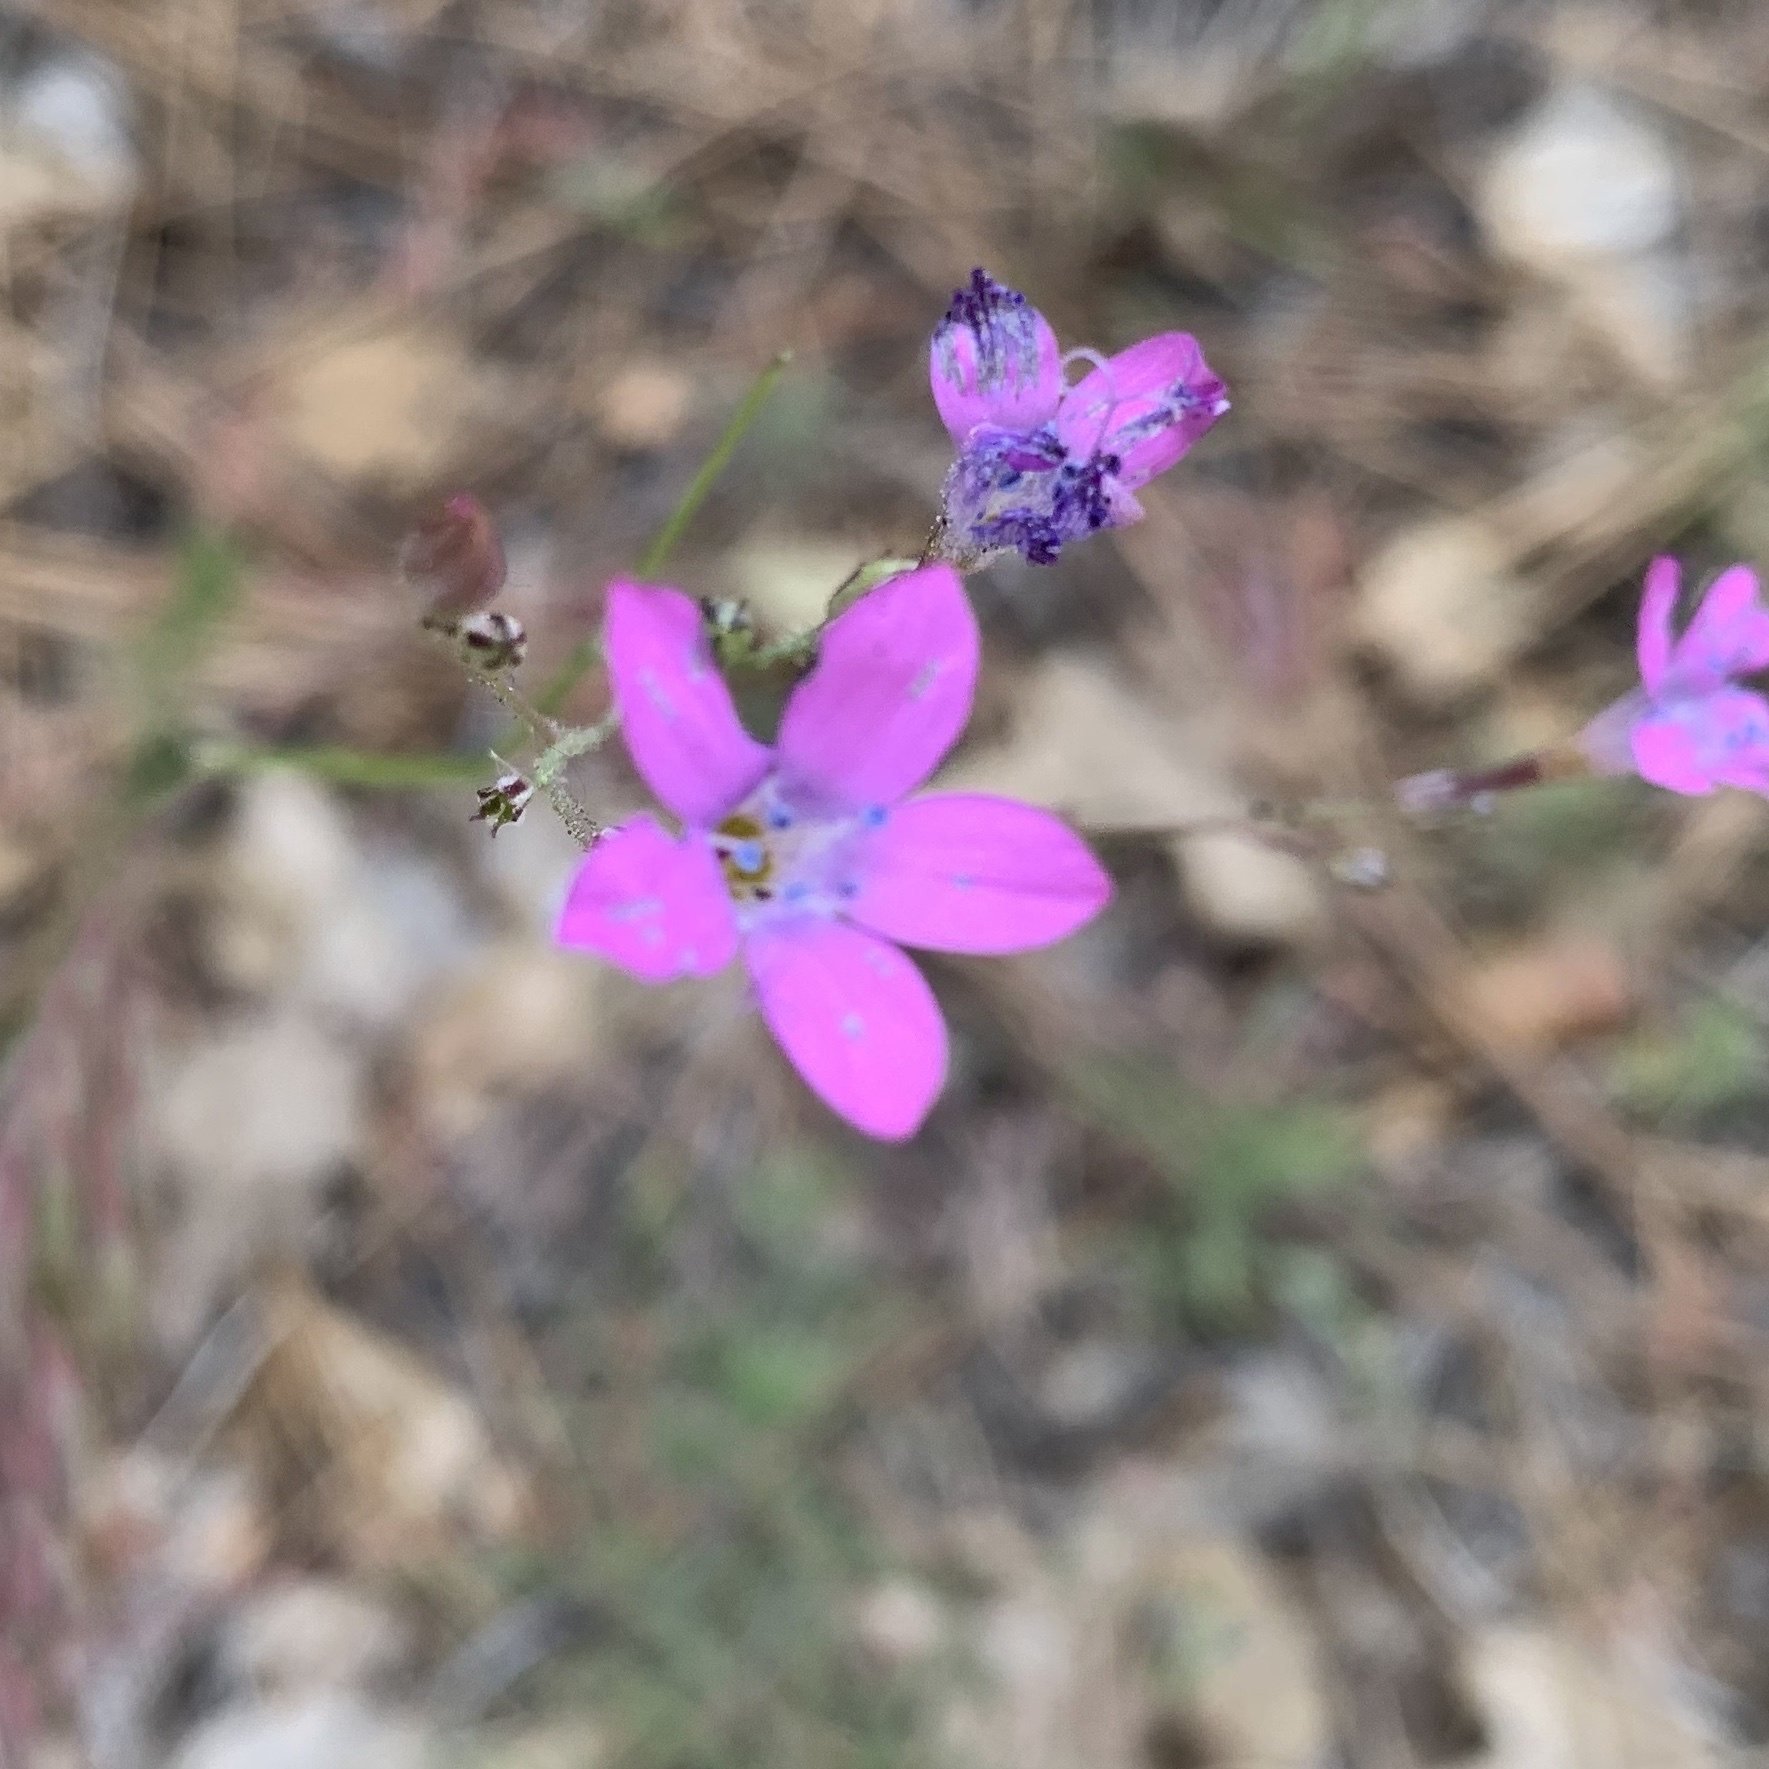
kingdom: Plantae
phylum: Tracheophyta
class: Magnoliopsida
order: Ericales
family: Polemoniaceae
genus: Saltugilia
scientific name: Saltugilia splendens
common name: Grinnell's gilia
